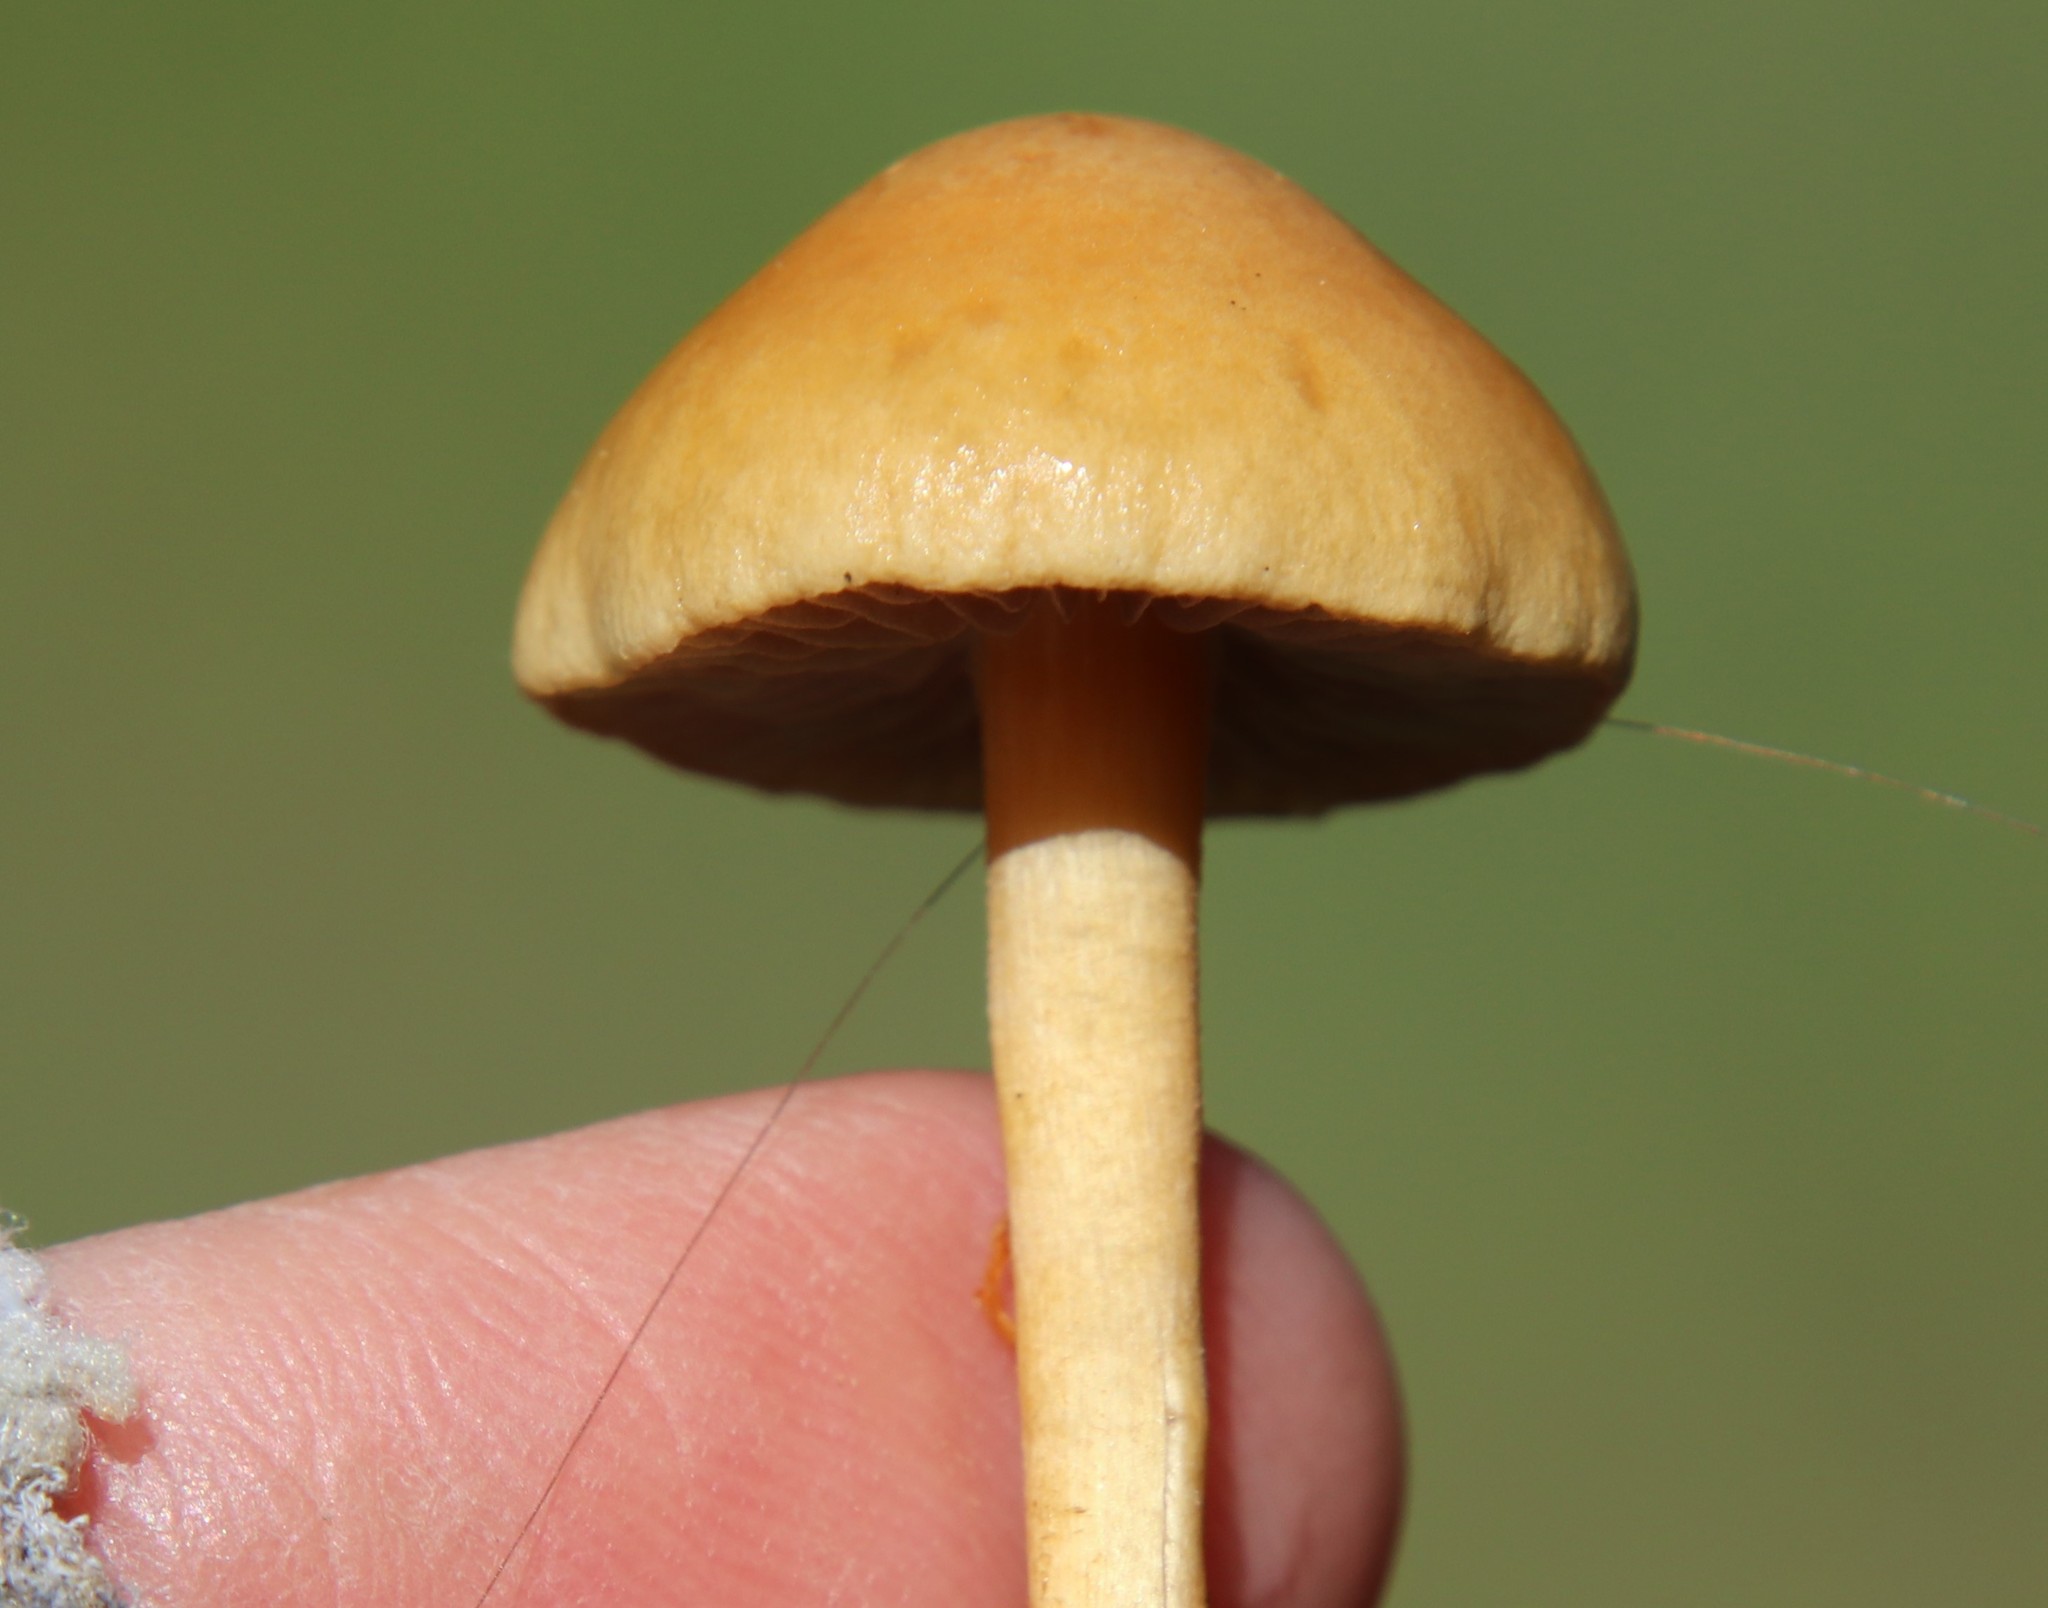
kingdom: Fungi
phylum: Basidiomycota
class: Agaricomycetes
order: Agaricales
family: Strophariaceae
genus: Agrocybe
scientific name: Agrocybe pediades
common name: Common fieldcap
